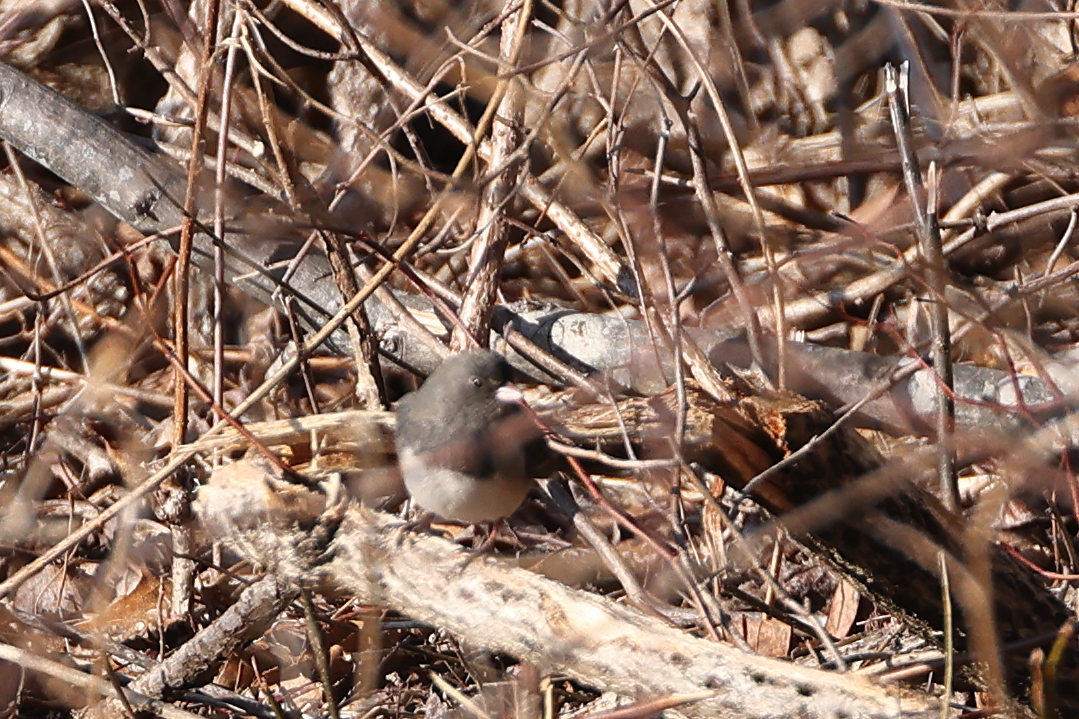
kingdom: Animalia
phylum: Chordata
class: Aves
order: Passeriformes
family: Passerellidae
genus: Junco
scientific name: Junco hyemalis
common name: Dark-eyed junco
